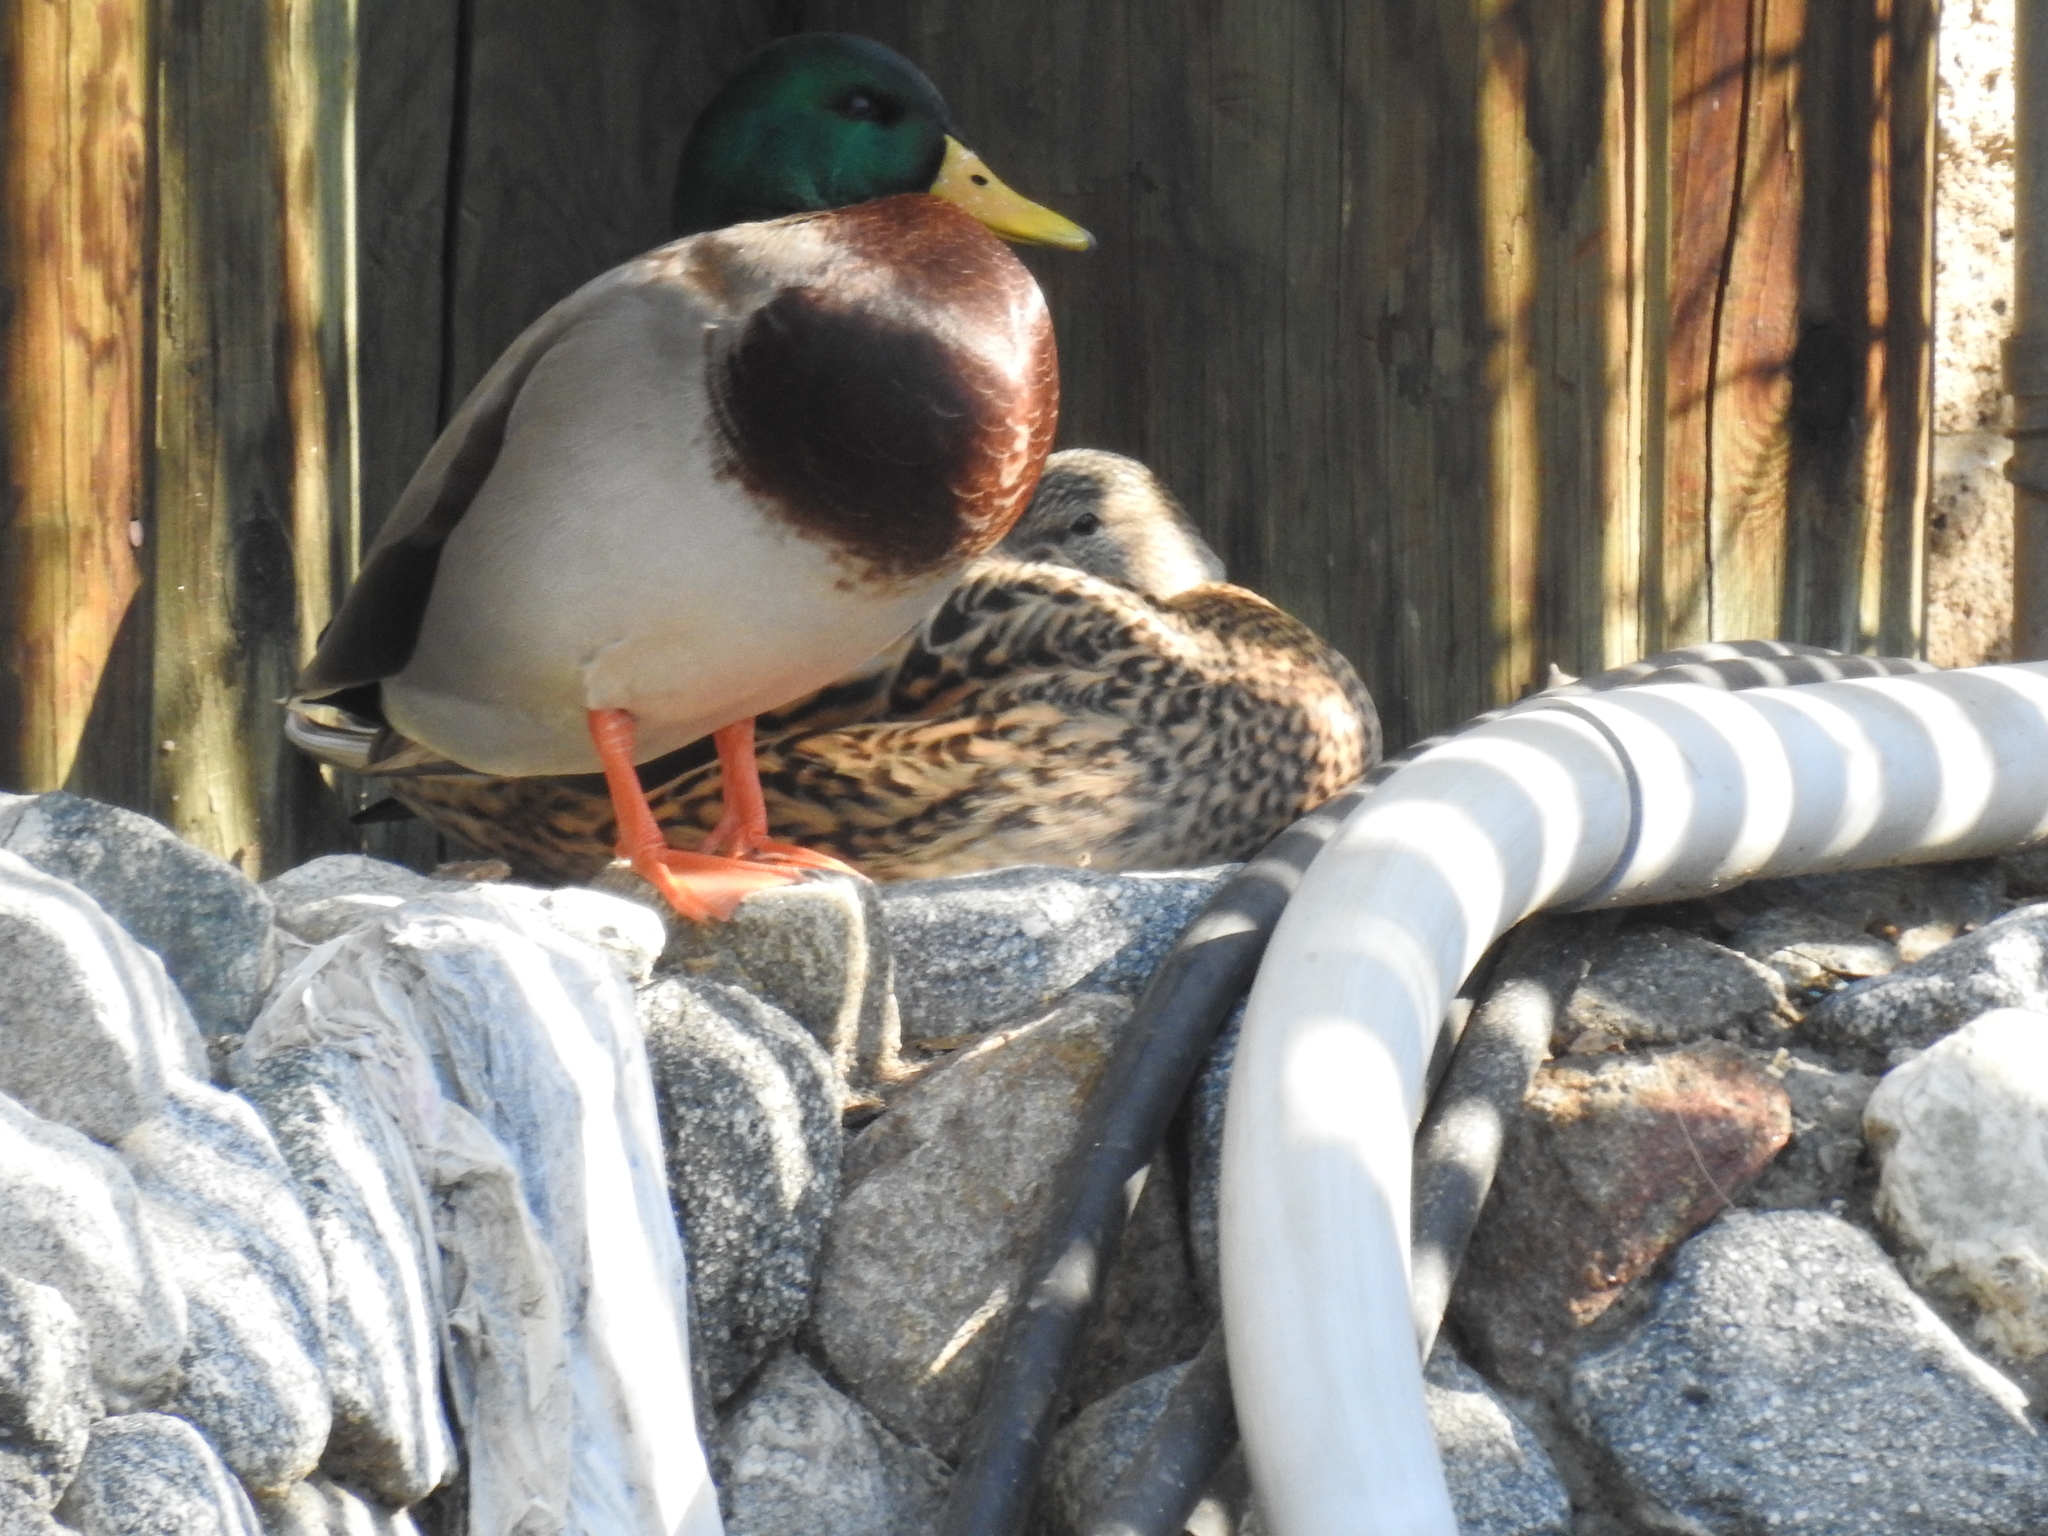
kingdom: Animalia
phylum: Chordata
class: Aves
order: Anseriformes
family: Anatidae
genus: Anas
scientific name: Anas platyrhynchos
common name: Mallard
